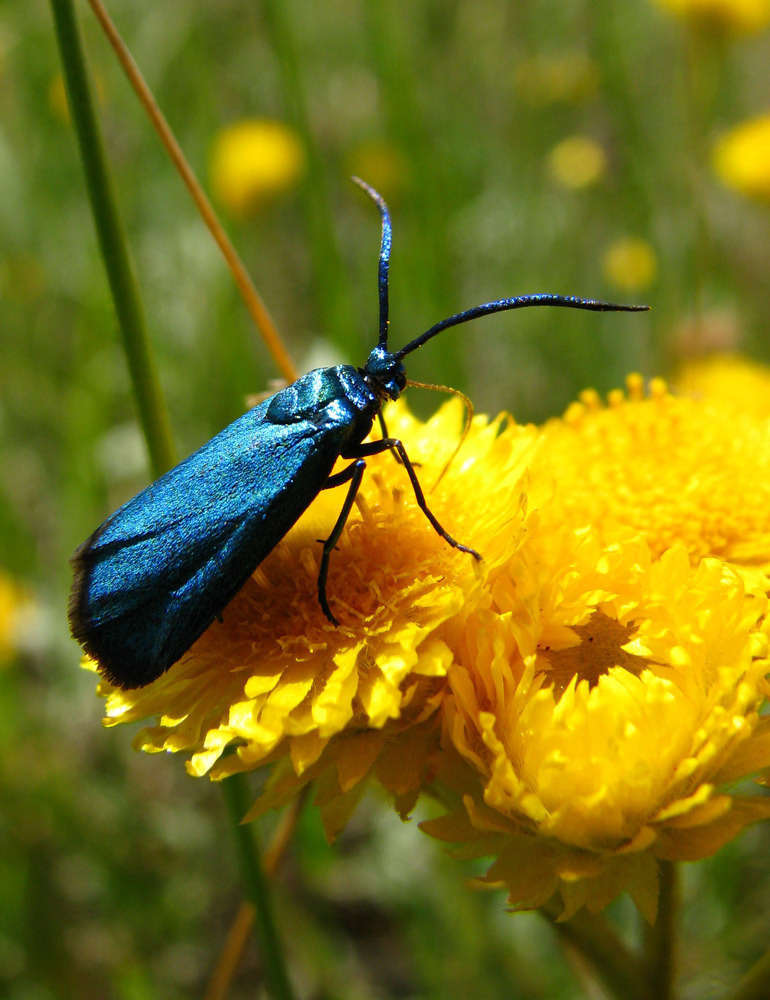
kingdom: Animalia
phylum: Arthropoda
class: Insecta
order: Lepidoptera
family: Zygaenidae
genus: Pollanisus
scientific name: Pollanisus viridipulverulenta
